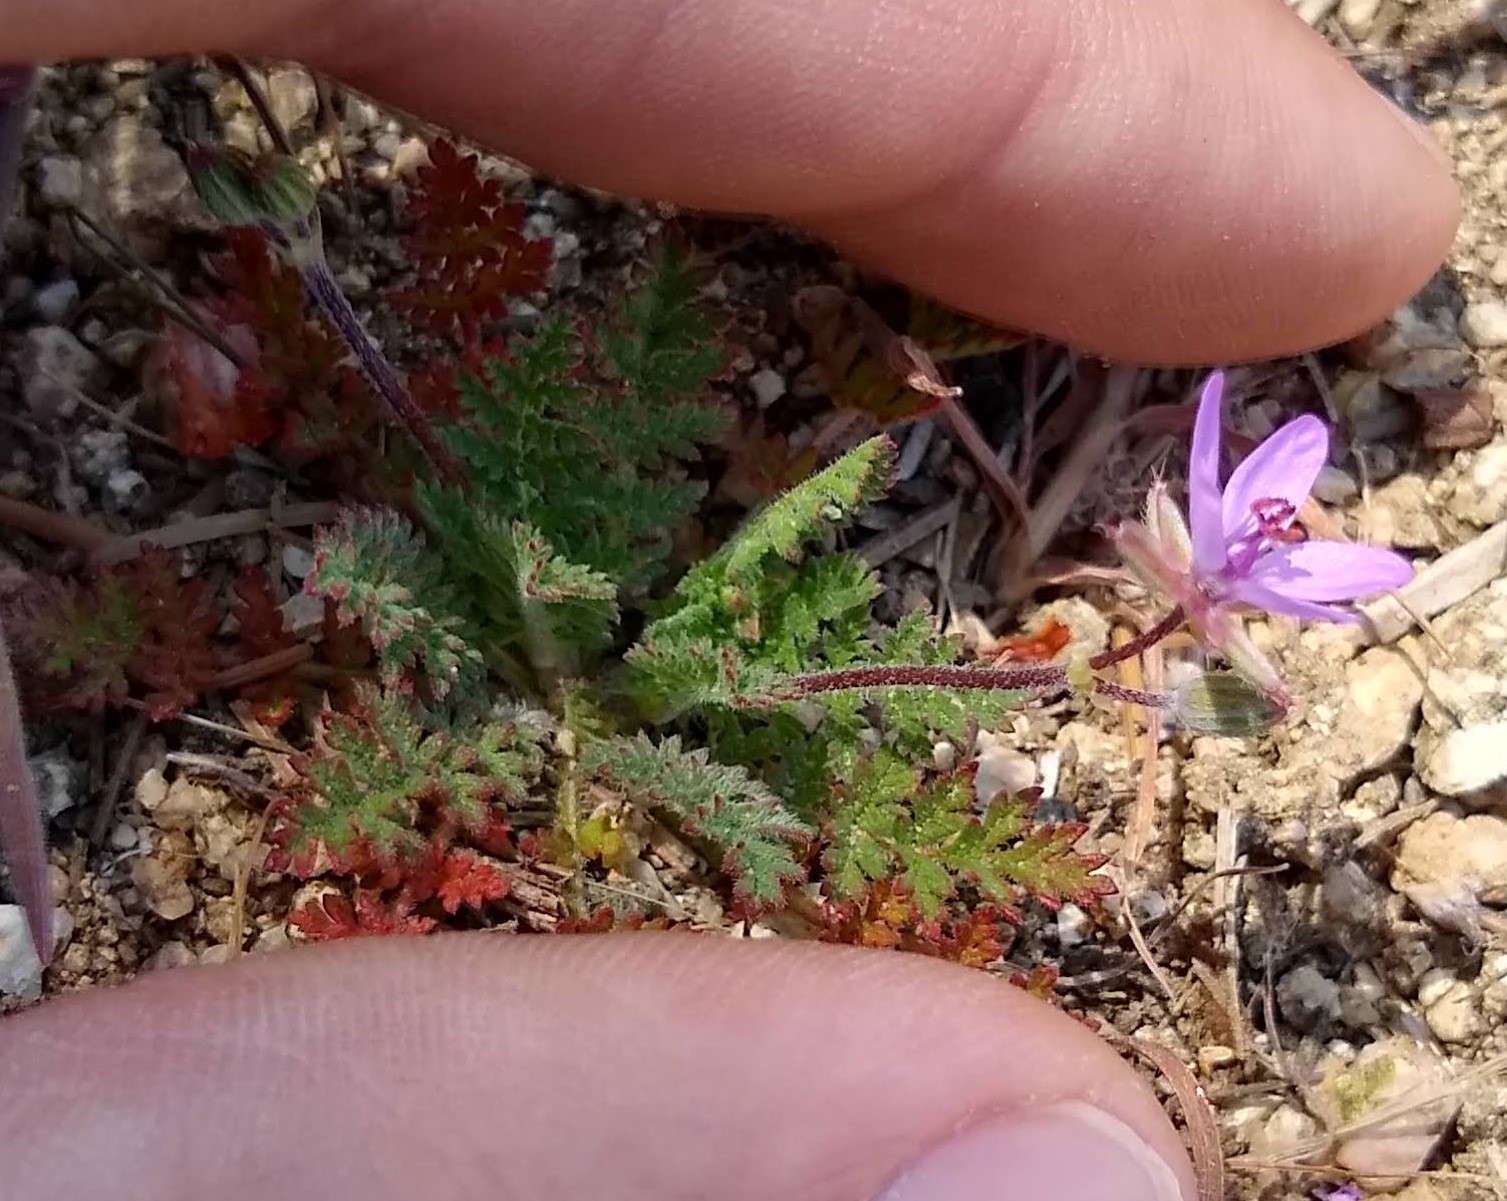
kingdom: Plantae
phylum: Tracheophyta
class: Magnoliopsida
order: Geraniales
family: Geraniaceae
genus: Erodium
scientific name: Erodium cicutarium
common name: Common stork's-bill
